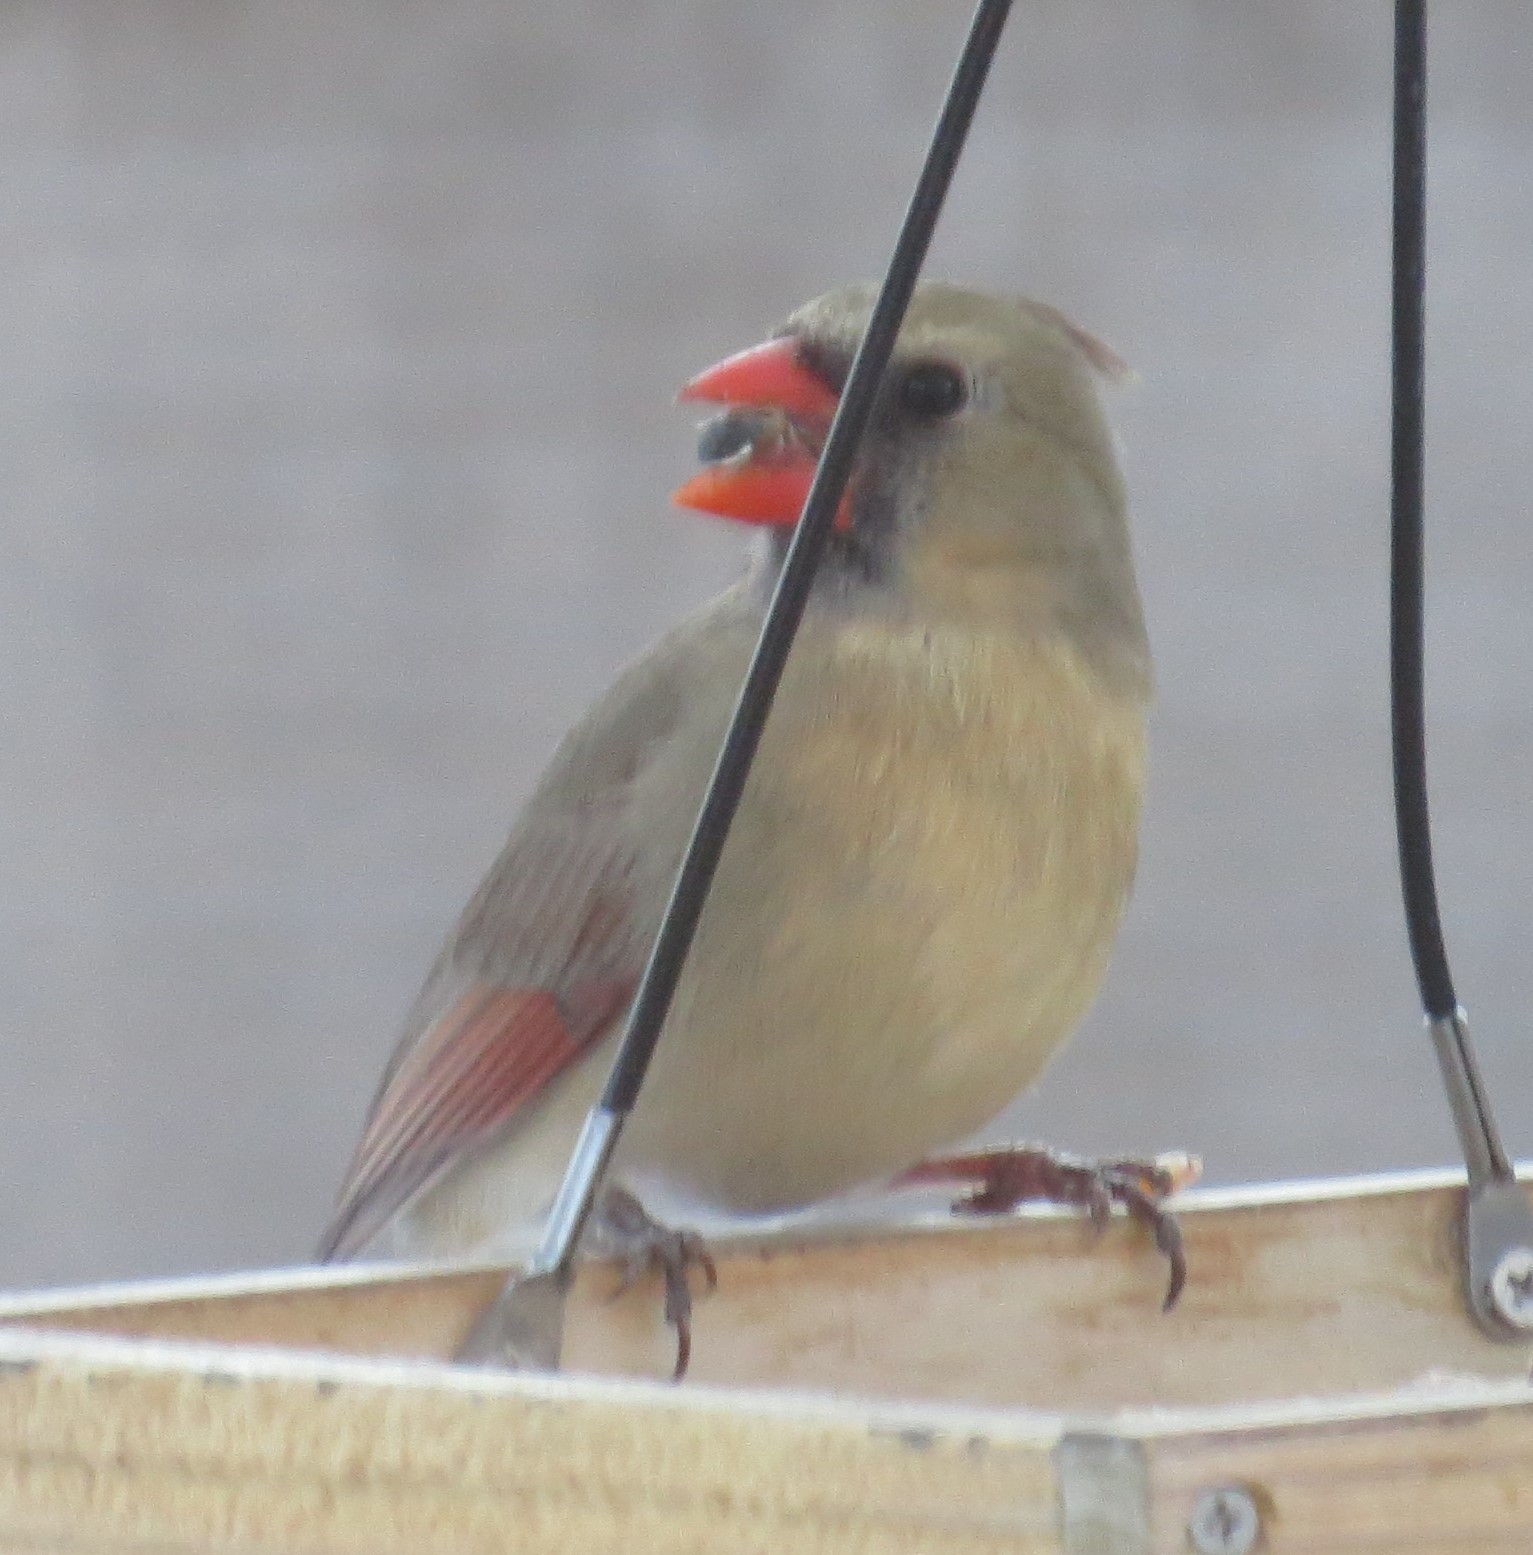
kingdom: Animalia
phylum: Chordata
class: Aves
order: Passeriformes
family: Cardinalidae
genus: Cardinalis
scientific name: Cardinalis cardinalis
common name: Northern cardinal
